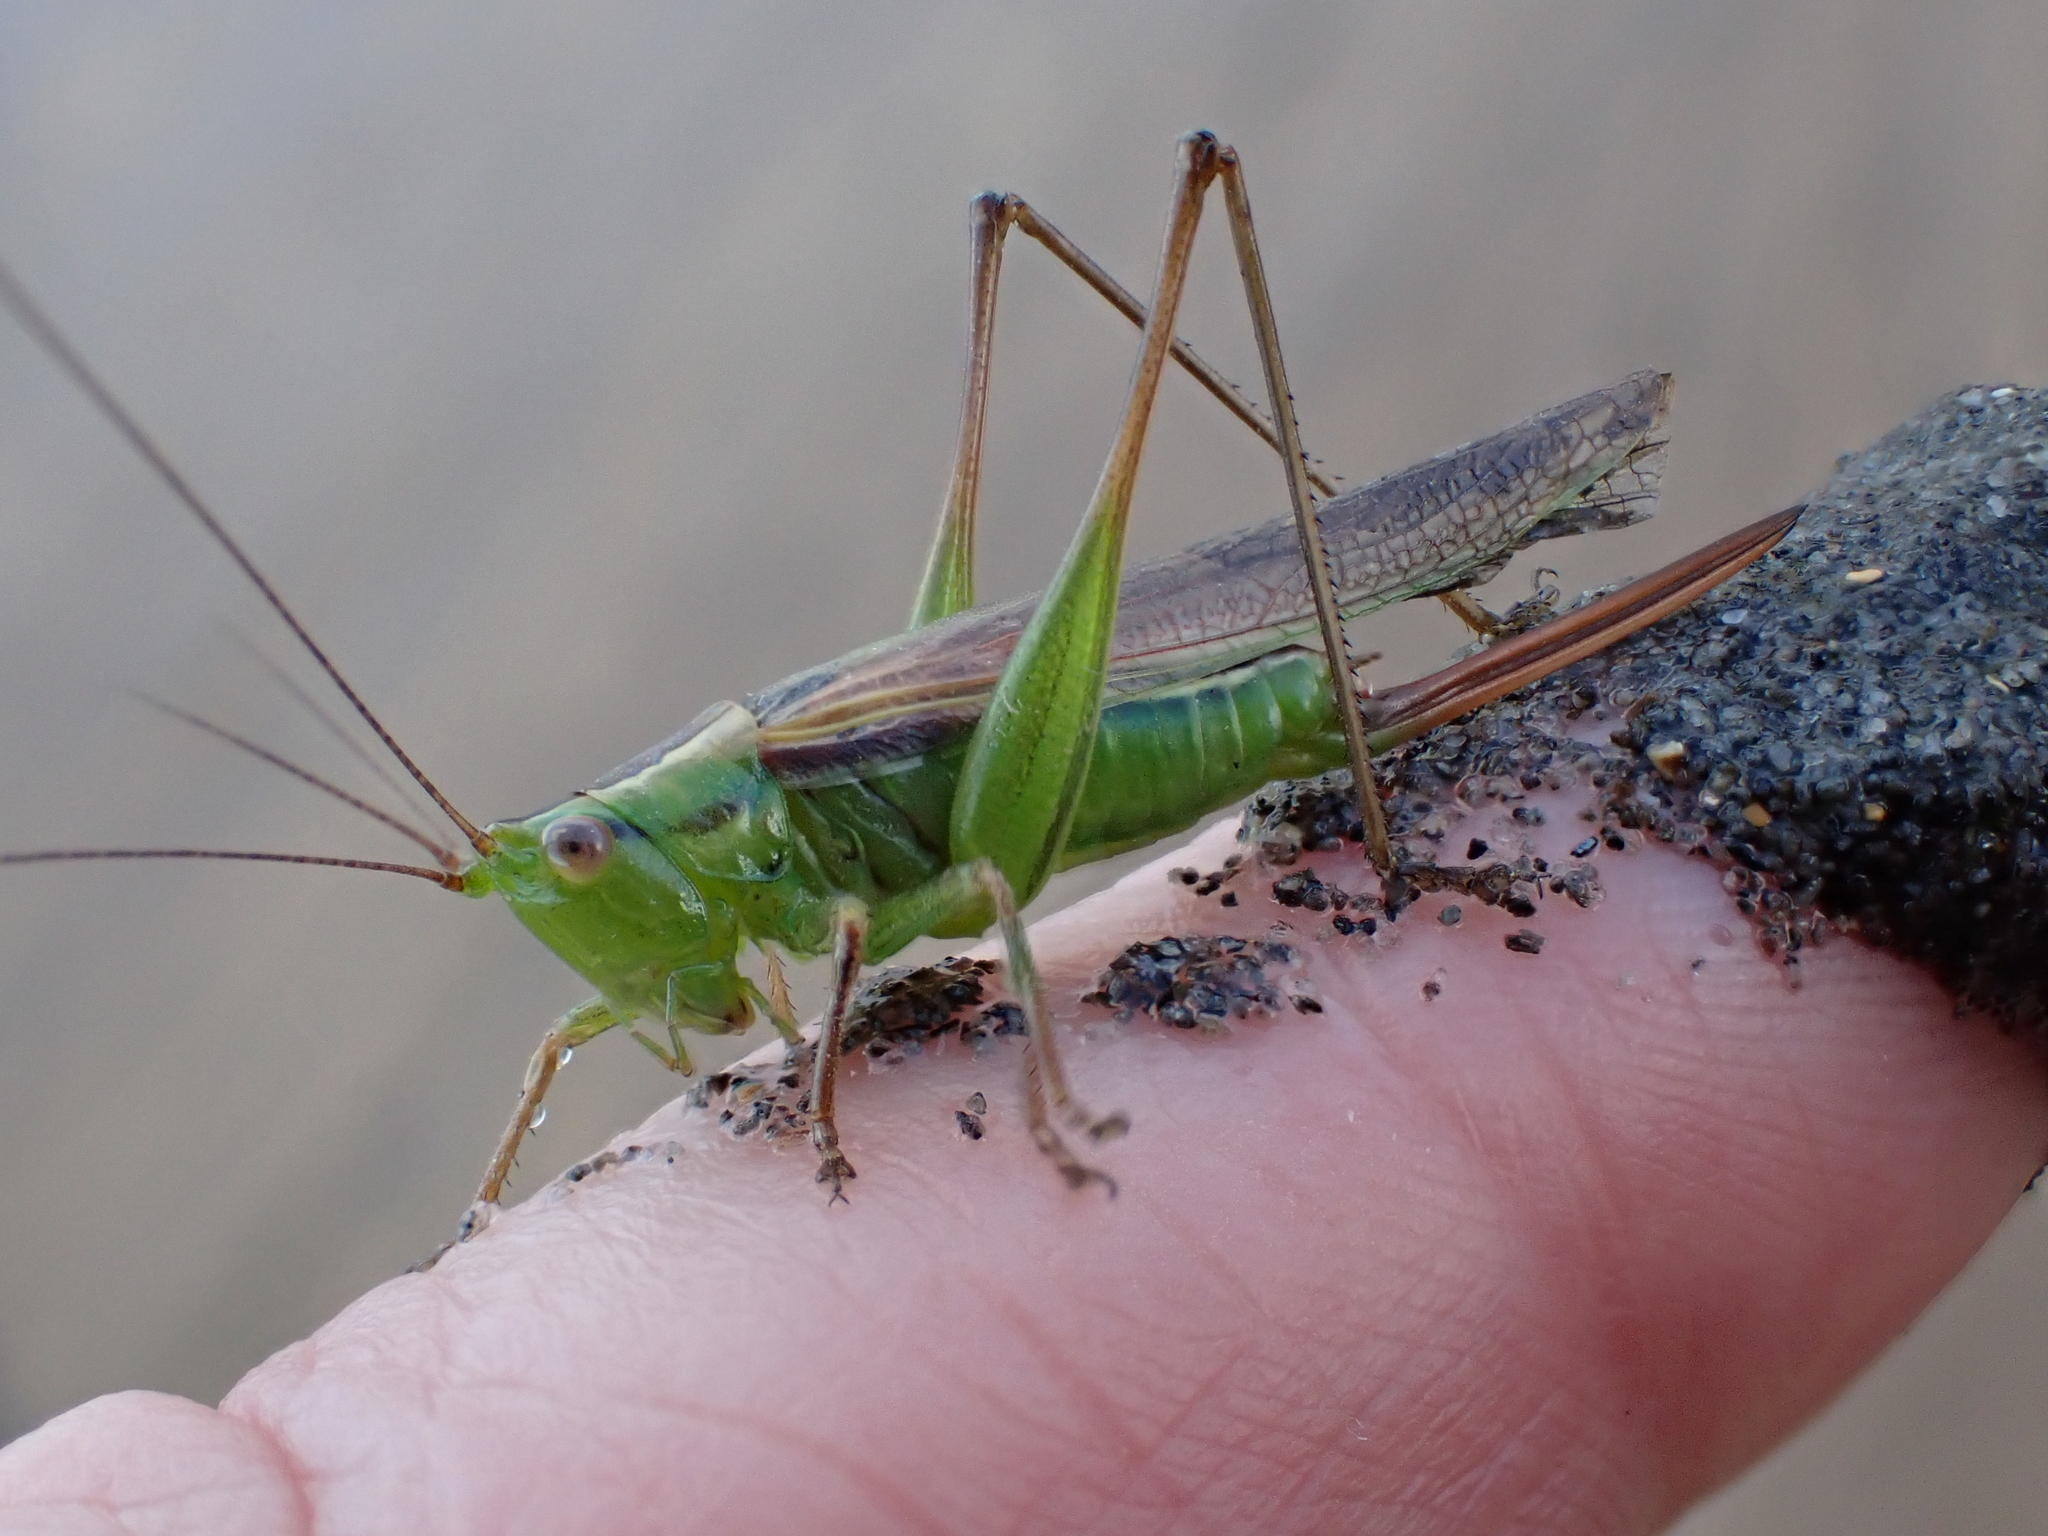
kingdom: Animalia
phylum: Arthropoda
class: Insecta
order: Orthoptera
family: Tettigoniidae
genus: Conocephalus
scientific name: Conocephalus bilineatus
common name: Small meadow katydid
